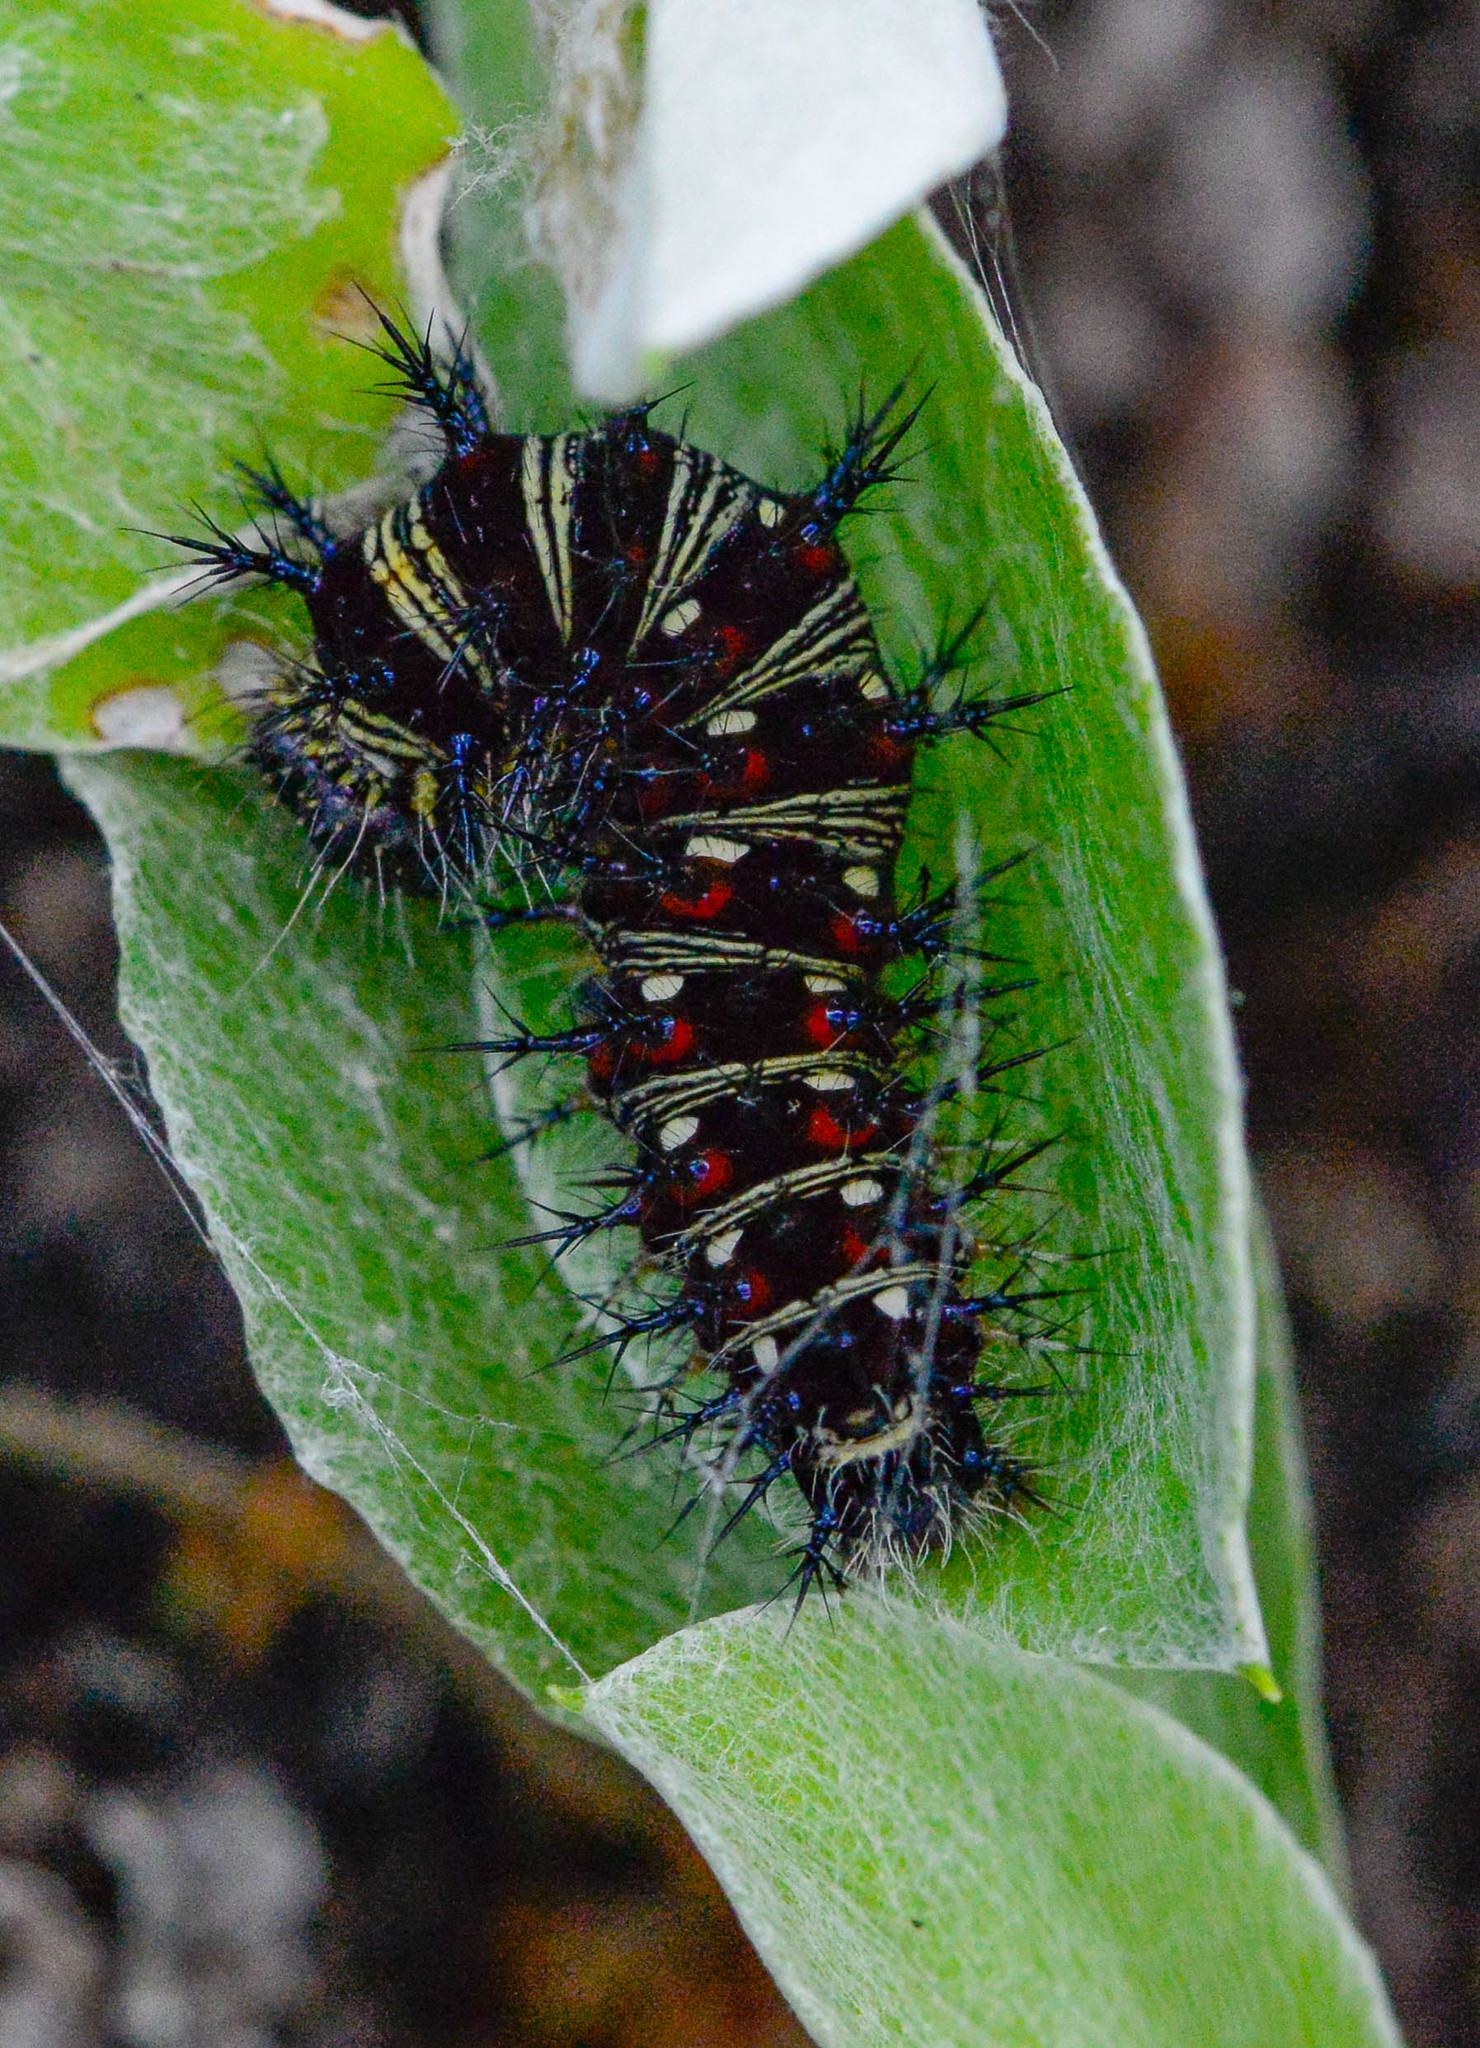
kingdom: Animalia
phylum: Arthropoda
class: Insecta
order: Lepidoptera
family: Nymphalidae
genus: Vanessa
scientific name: Vanessa virginiensis
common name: American lady
